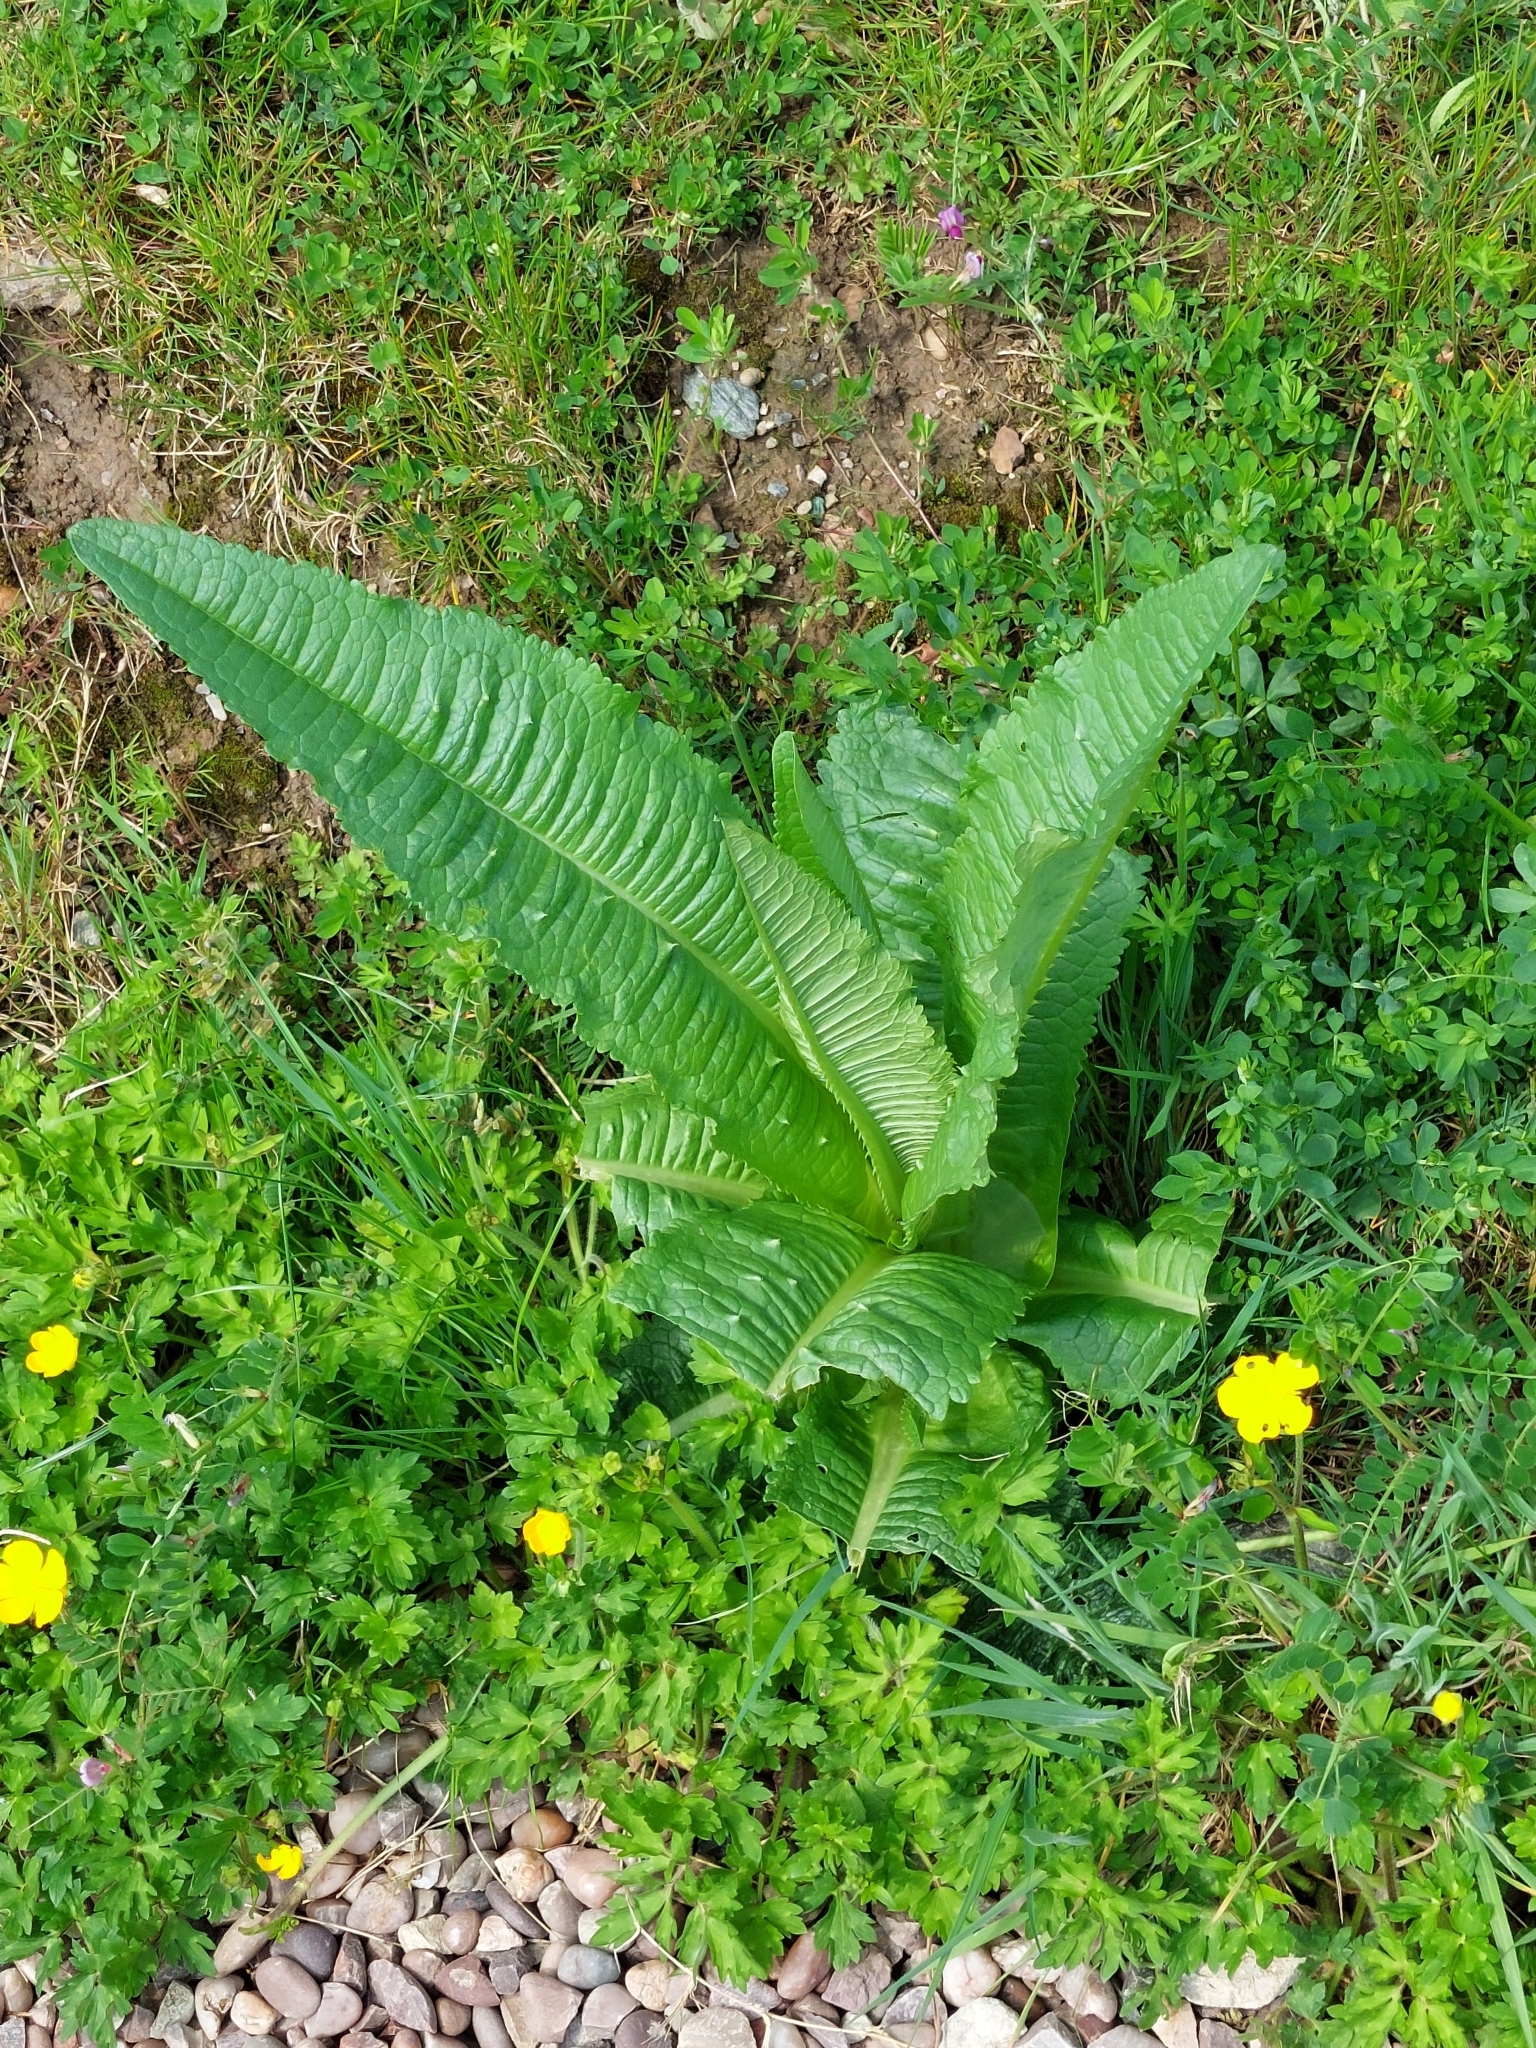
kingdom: Plantae
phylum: Tracheophyta
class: Magnoliopsida
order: Dipsacales
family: Caprifoliaceae
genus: Dipsacus
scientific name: Dipsacus fullonum
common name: Teasel
